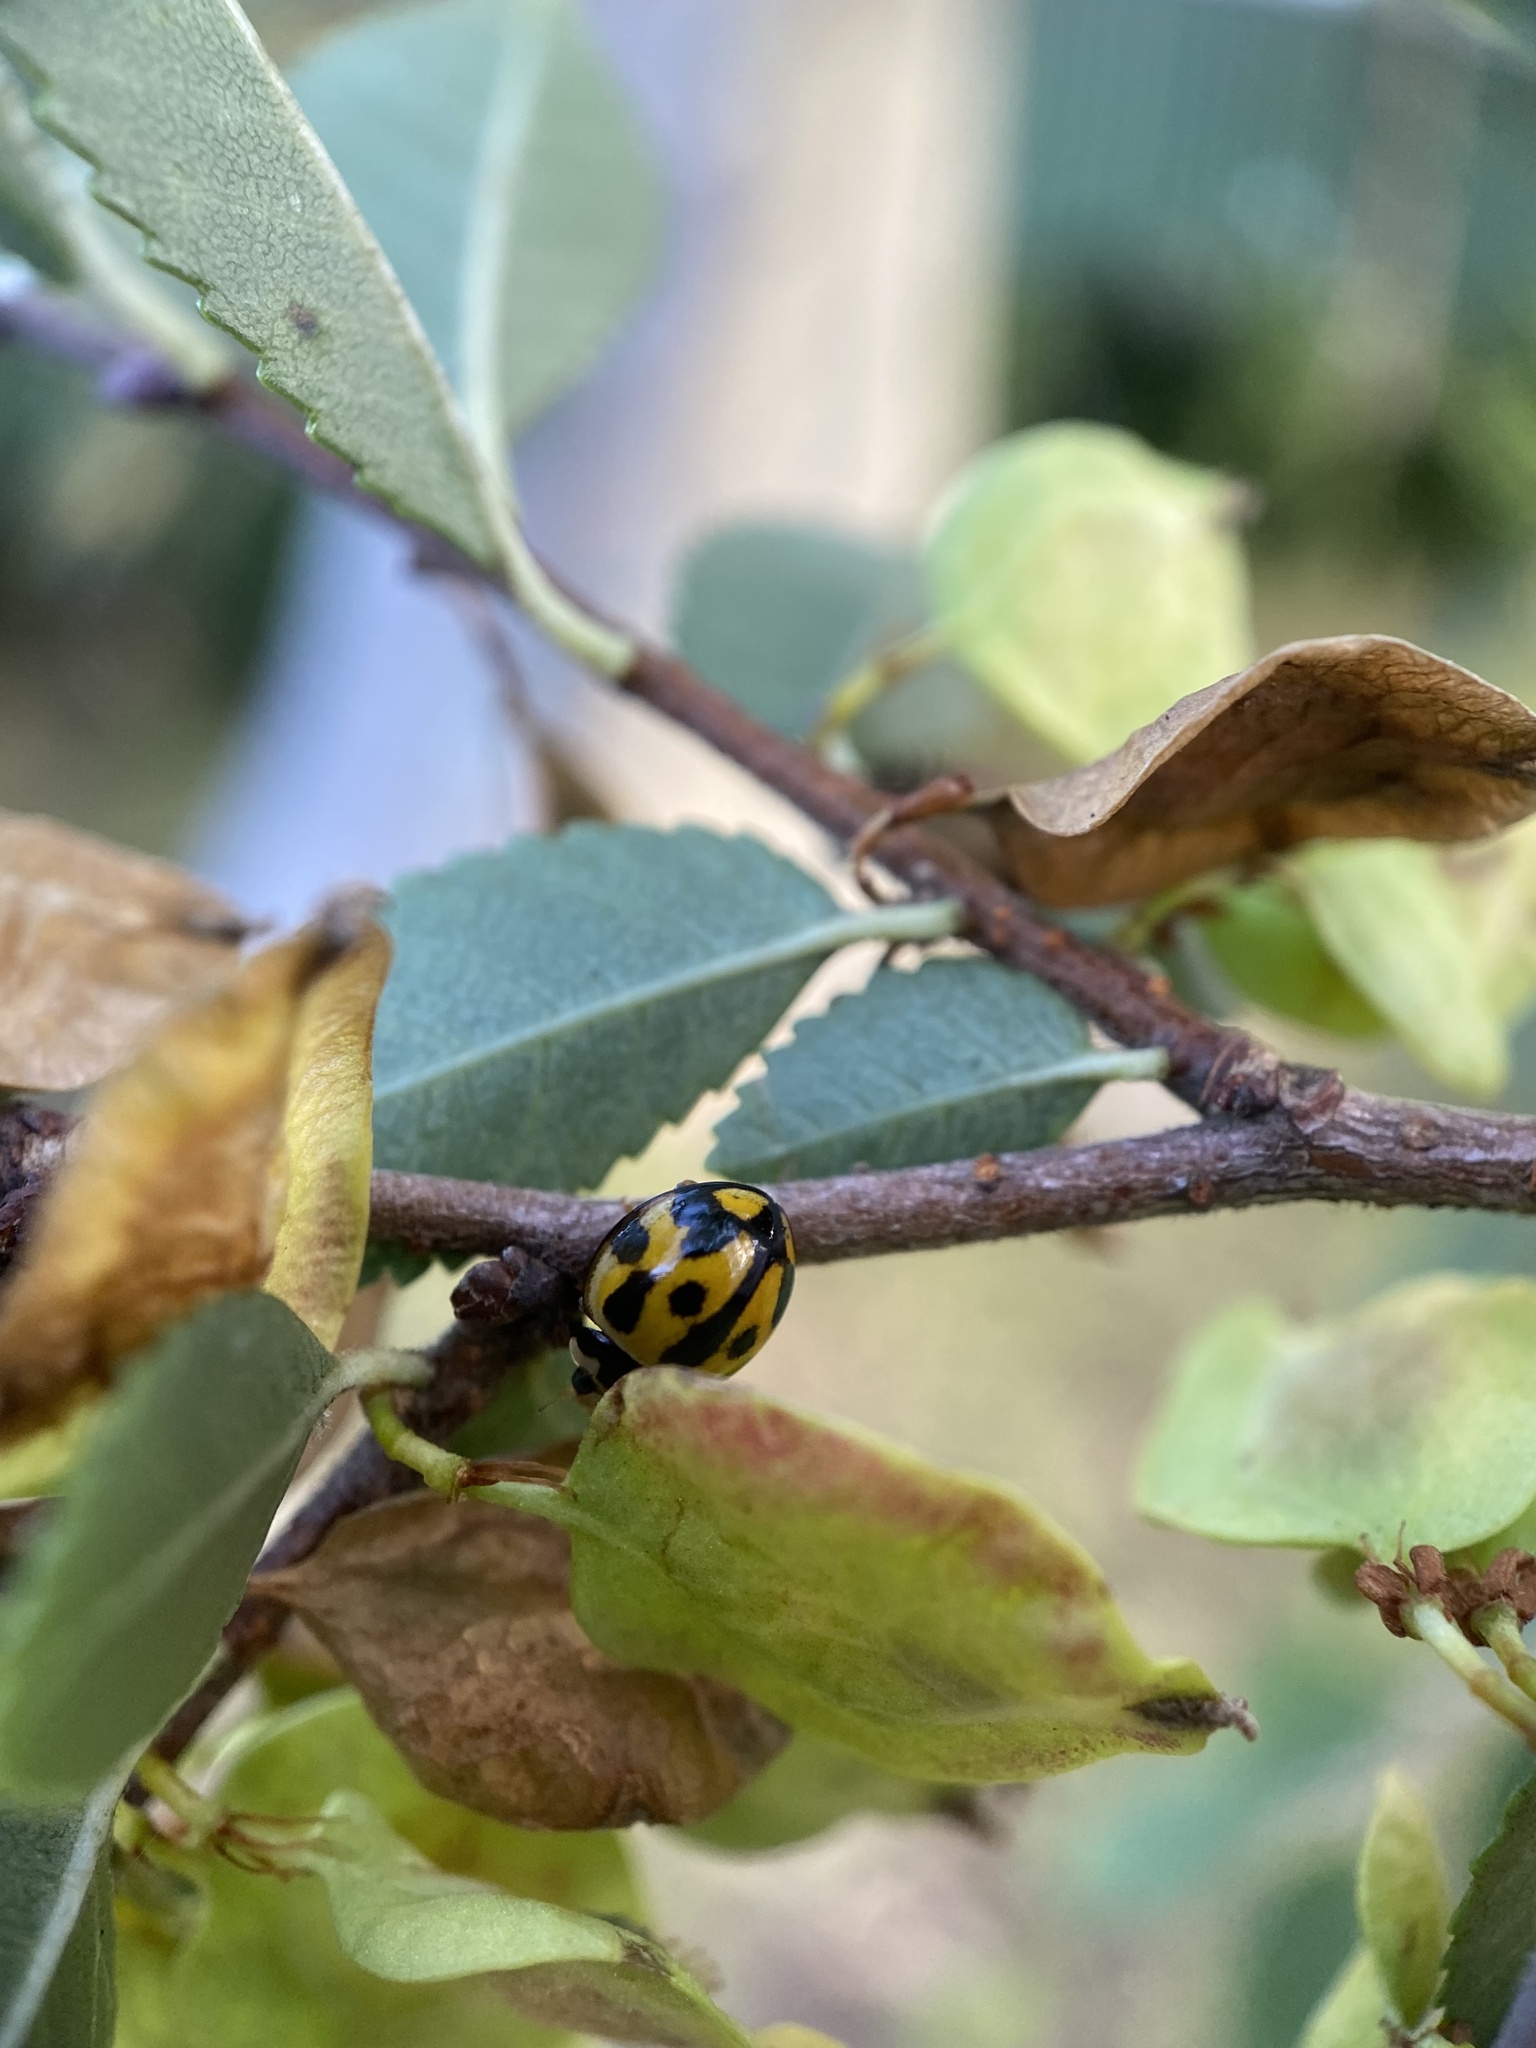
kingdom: Animalia
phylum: Arthropoda
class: Insecta
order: Coleoptera
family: Coccinellidae
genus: Coelophora
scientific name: Coelophora inaequalis
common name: Common australian lady beetle
